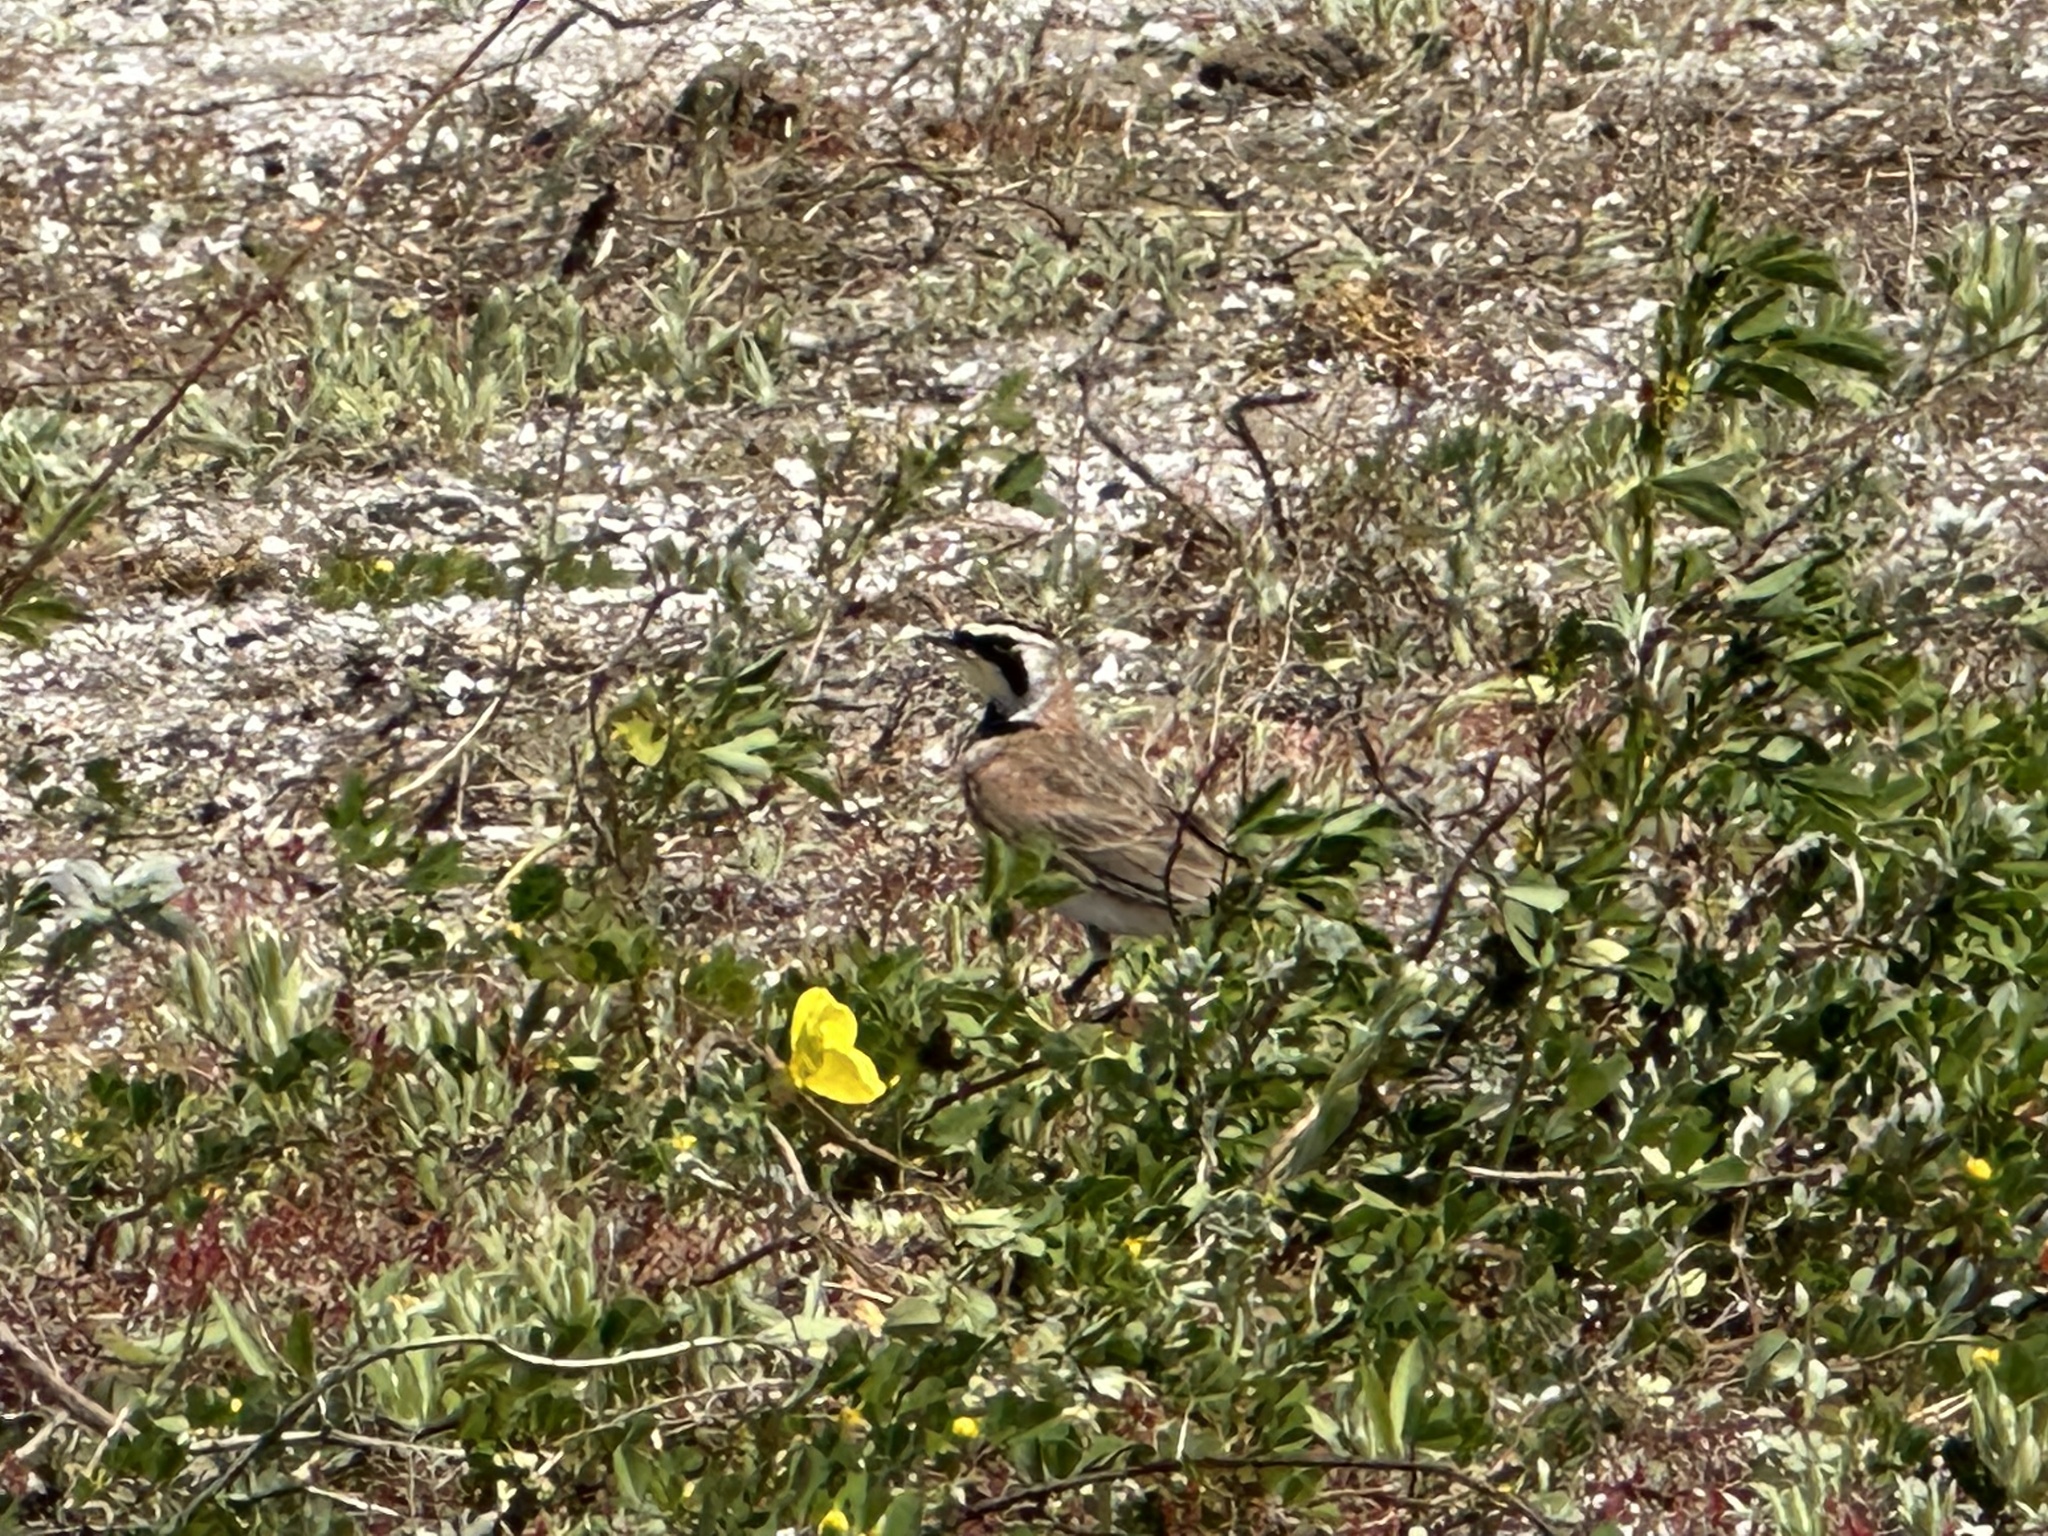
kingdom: Animalia
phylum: Chordata
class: Aves
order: Passeriformes
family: Alaudidae
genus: Eremophila
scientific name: Eremophila alpestris
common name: Horned lark
